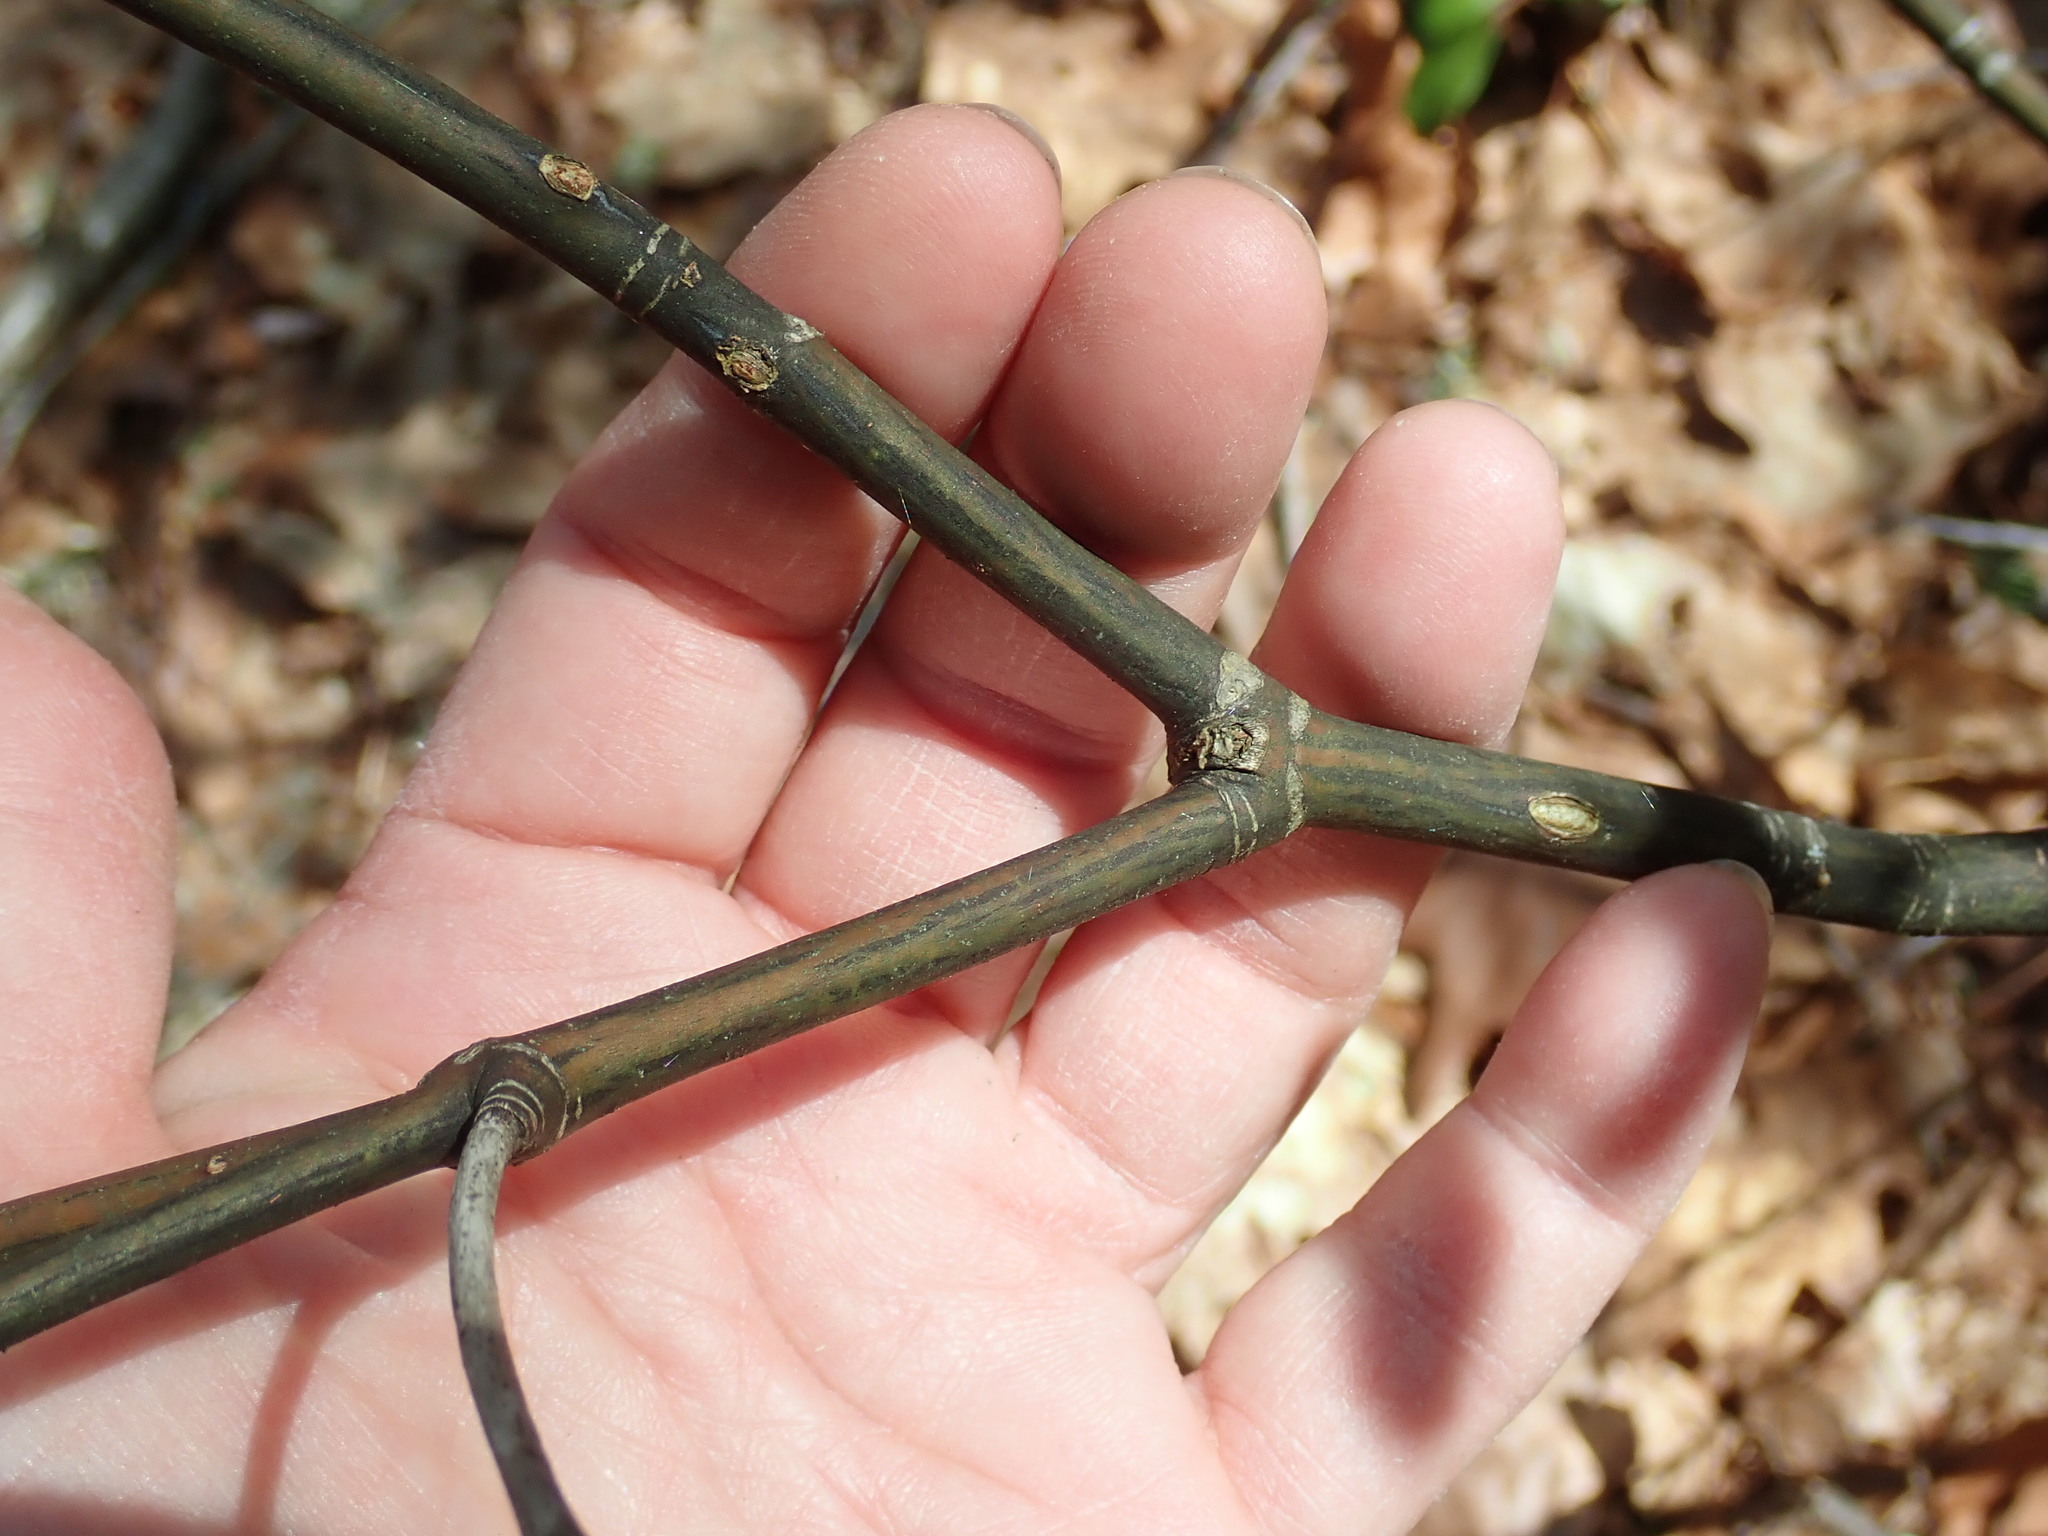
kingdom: Plantae
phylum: Tracheophyta
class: Magnoliopsida
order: Sapindales
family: Sapindaceae
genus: Acer
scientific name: Acer pensylvanicum
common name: Moosewood
